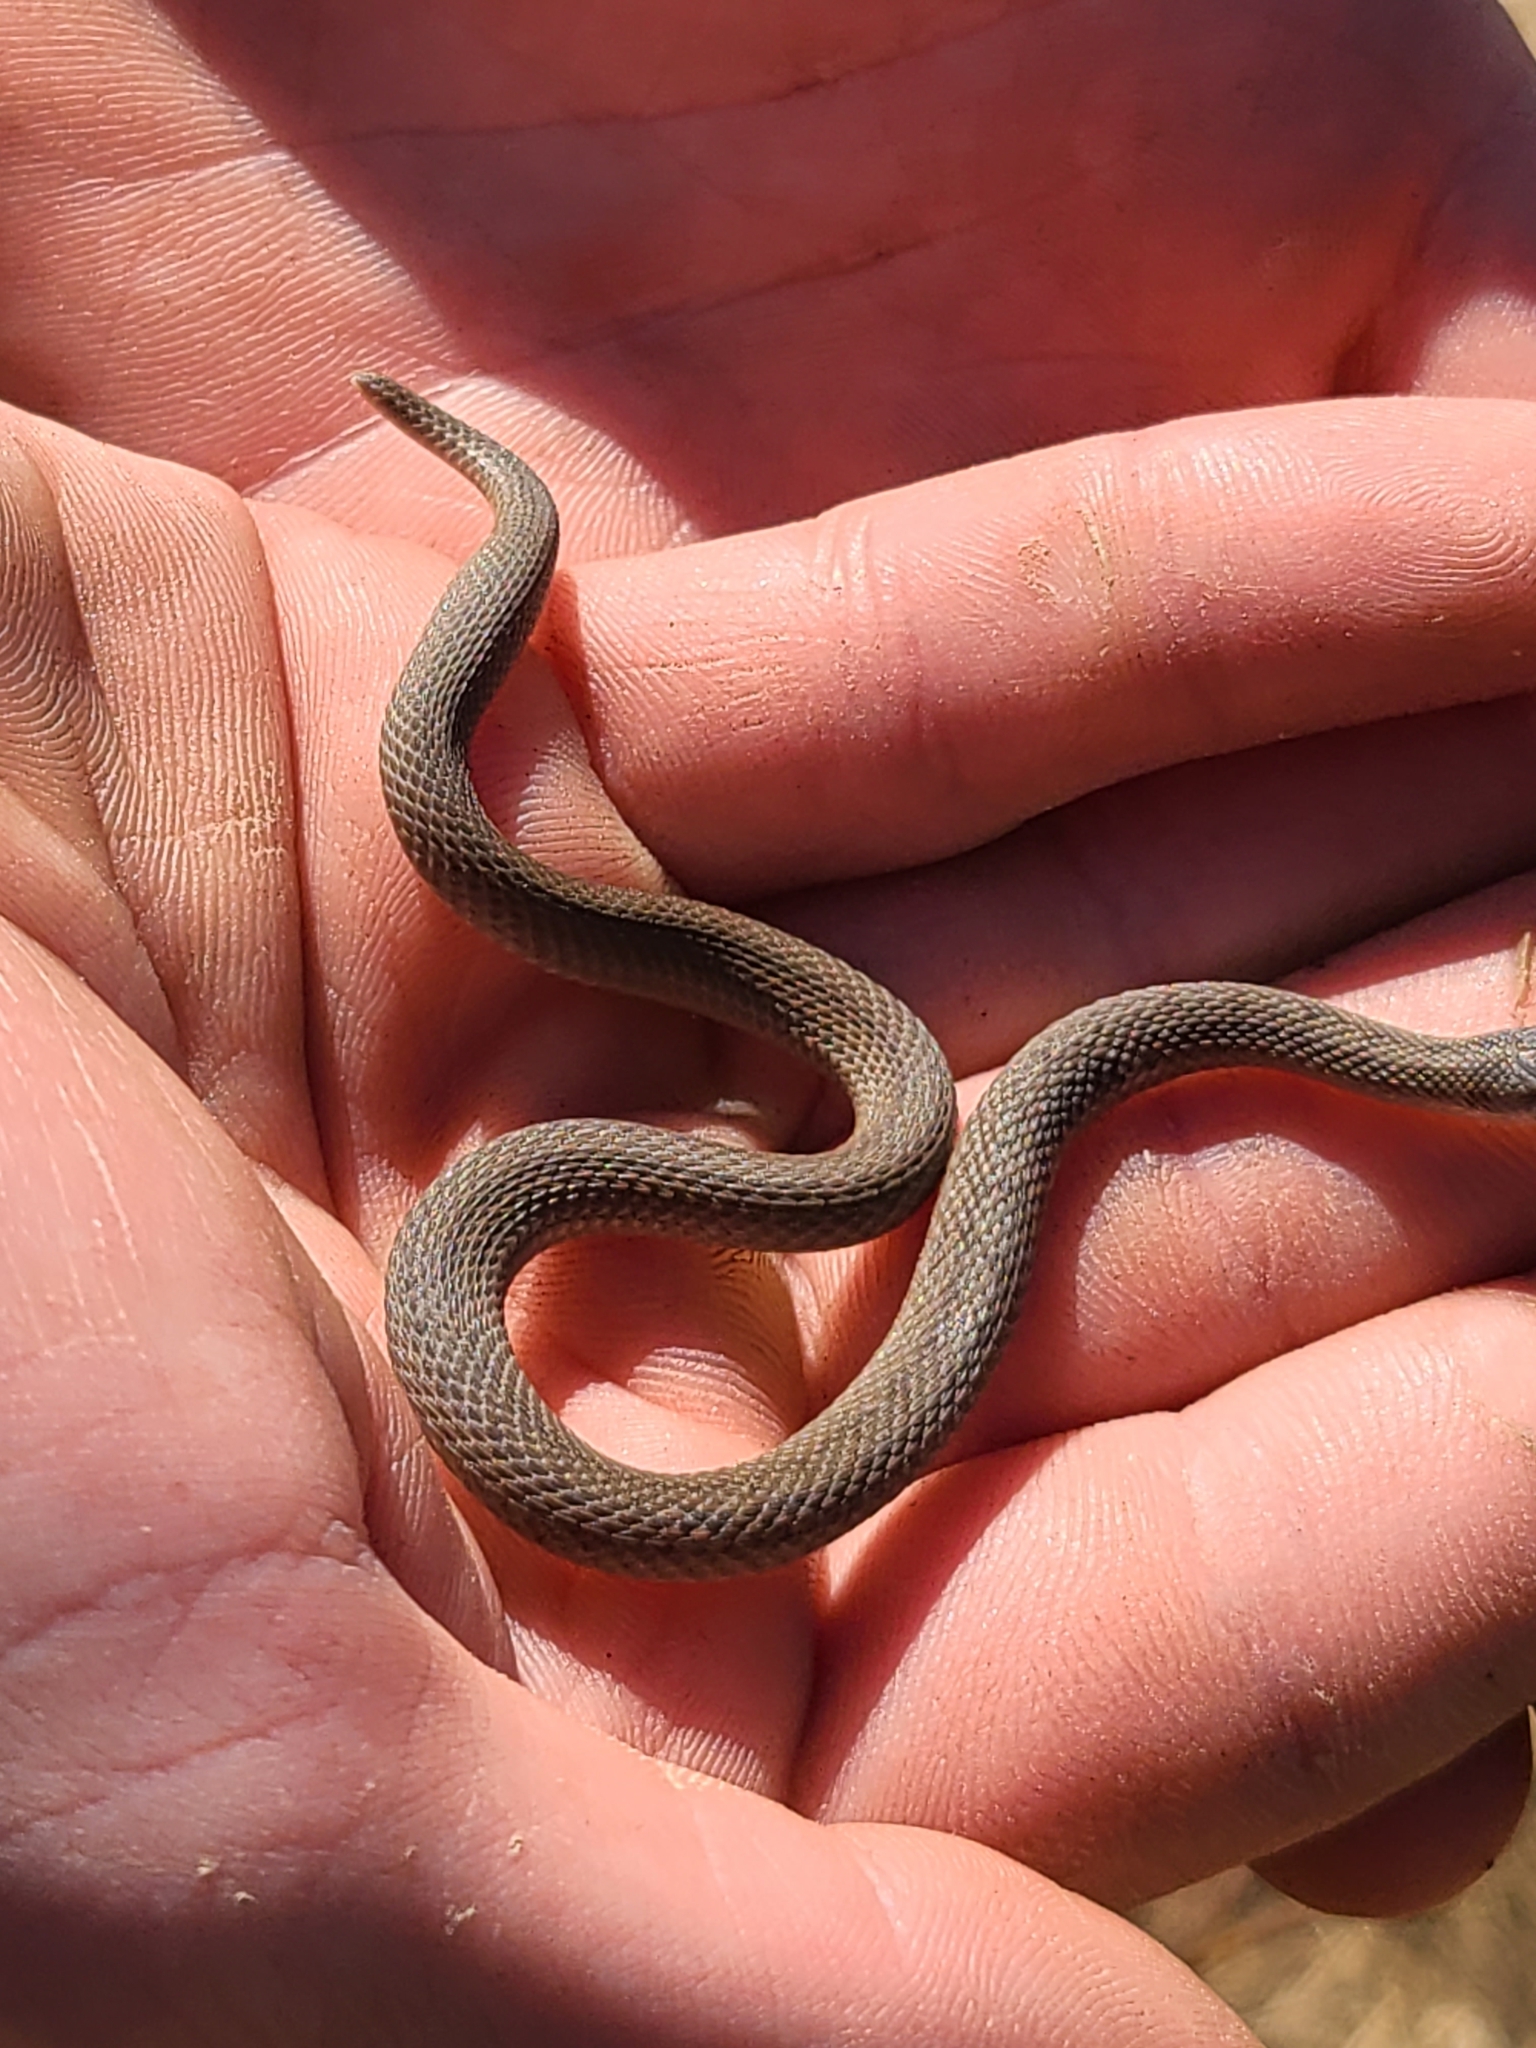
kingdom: Animalia
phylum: Chordata
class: Squamata
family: Colubridae
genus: Storeria
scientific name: Storeria dekayi
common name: (dekay’s) brown snake
